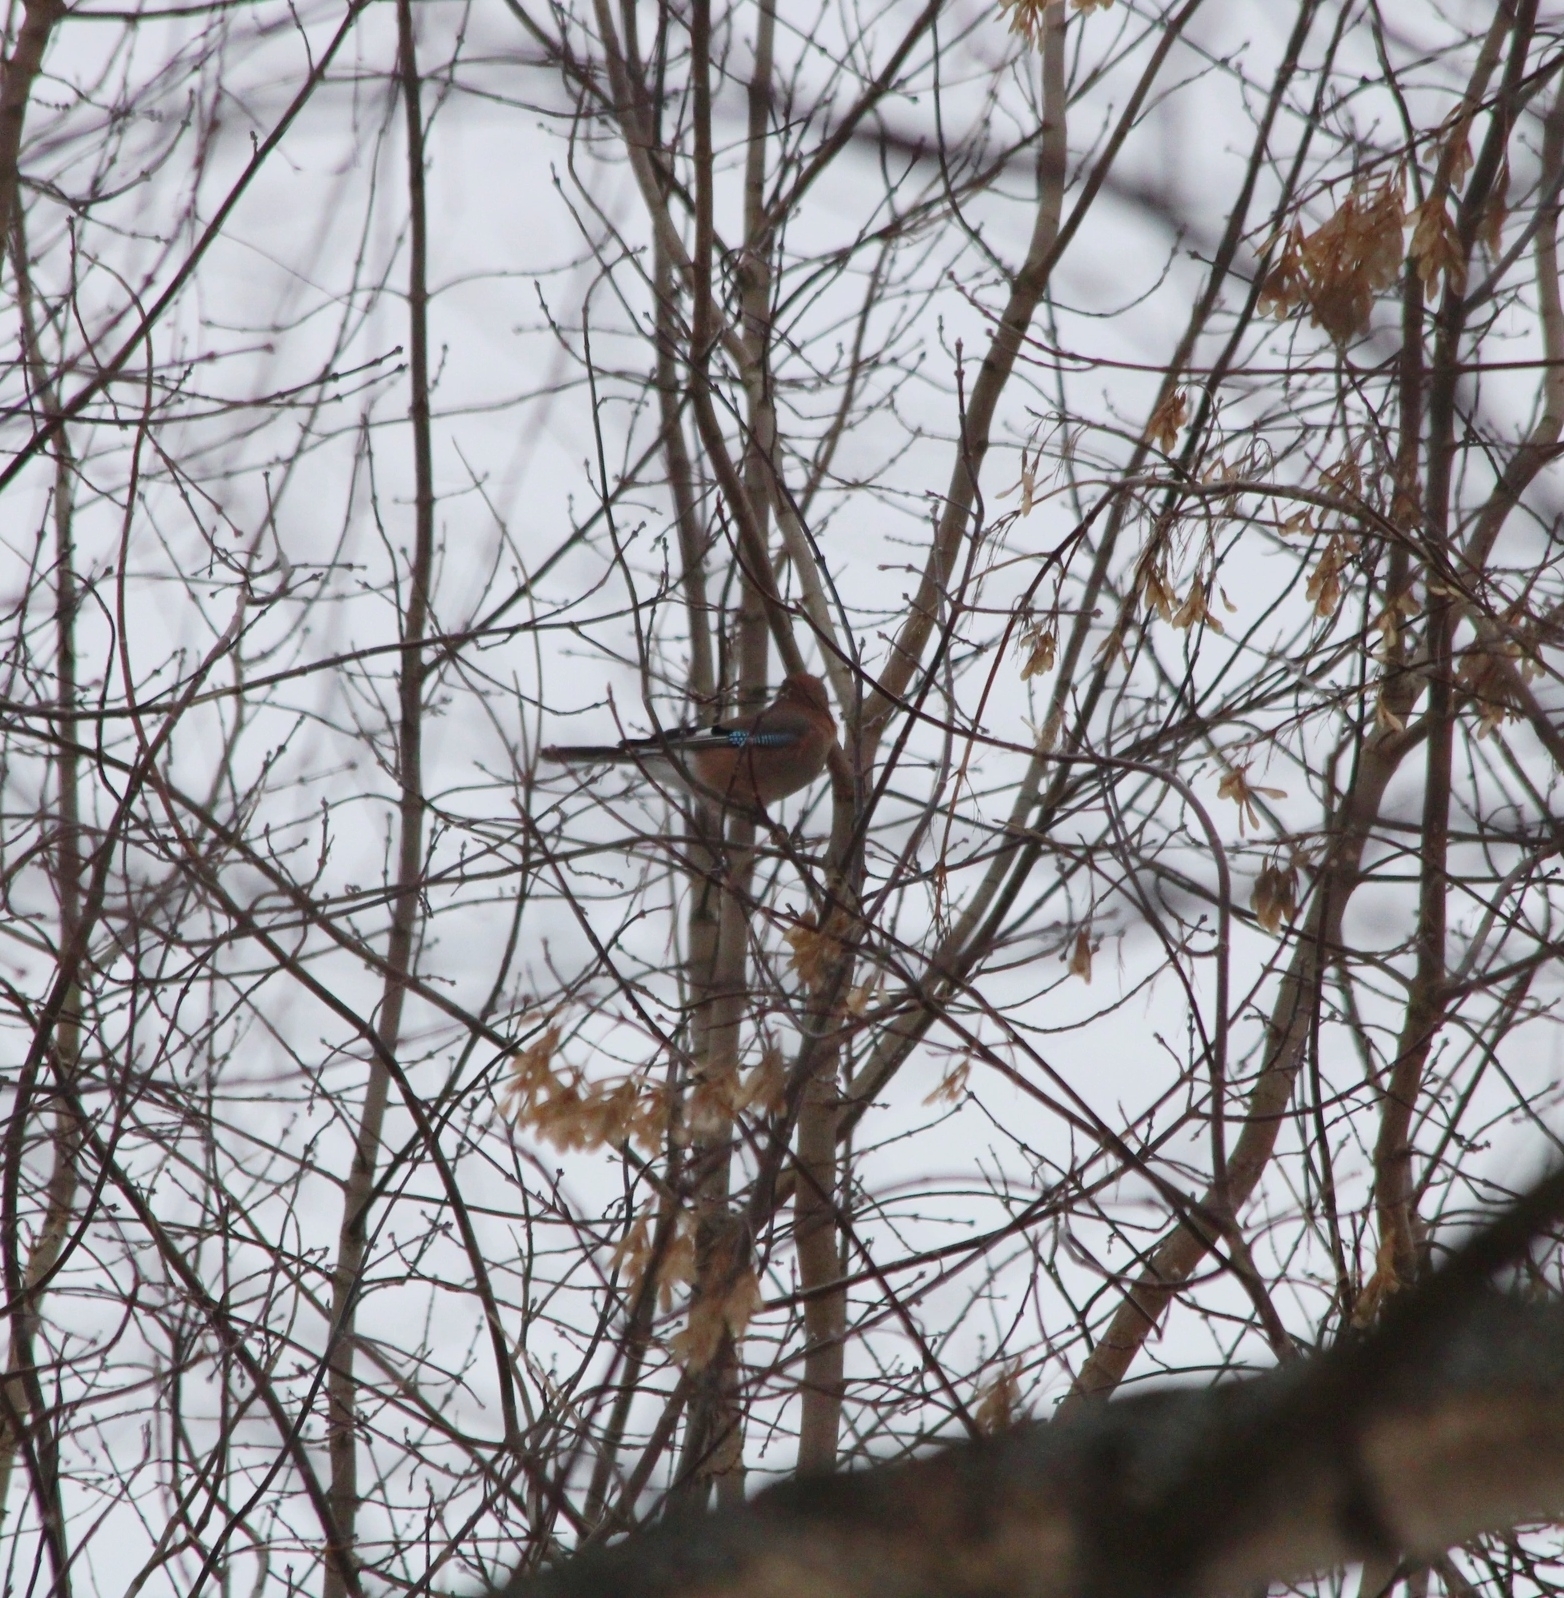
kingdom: Animalia
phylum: Chordata
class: Aves
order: Passeriformes
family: Corvidae
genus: Garrulus
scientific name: Garrulus glandarius
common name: Eurasian jay
